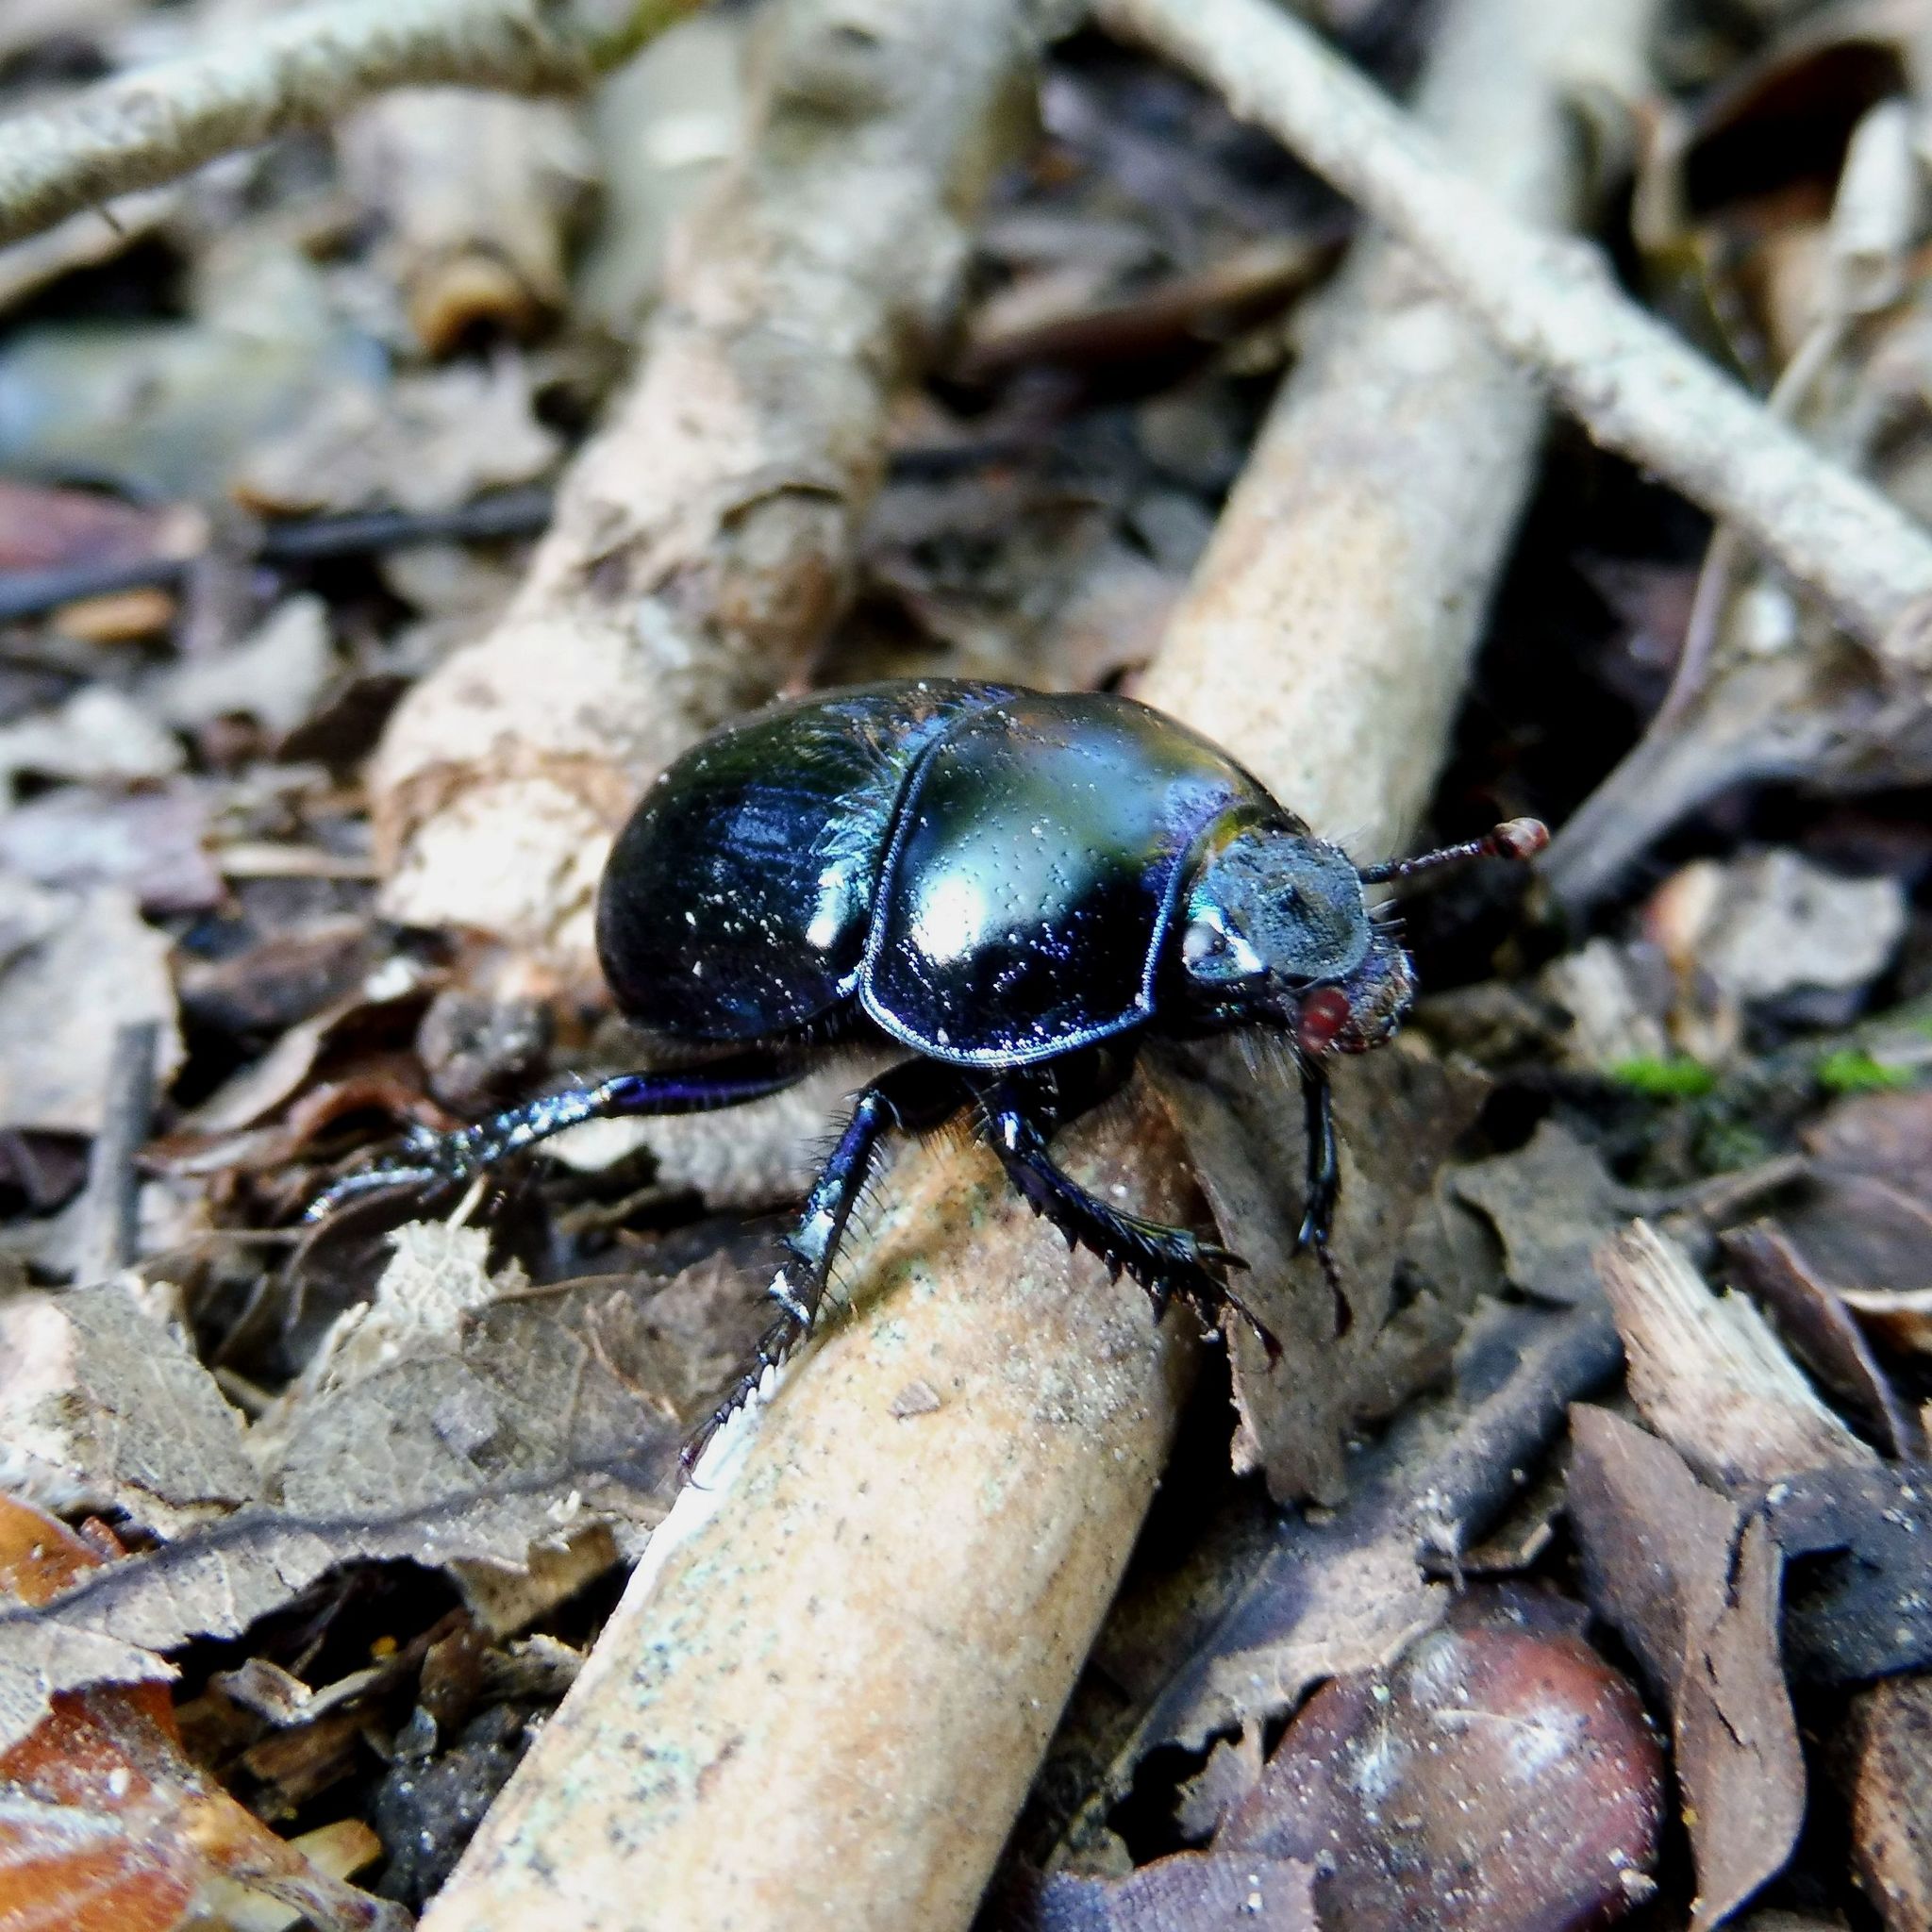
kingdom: Animalia
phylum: Arthropoda
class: Insecta
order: Coleoptera
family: Geotrupidae
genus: Anoplotrupes
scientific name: Anoplotrupes stercorosus
